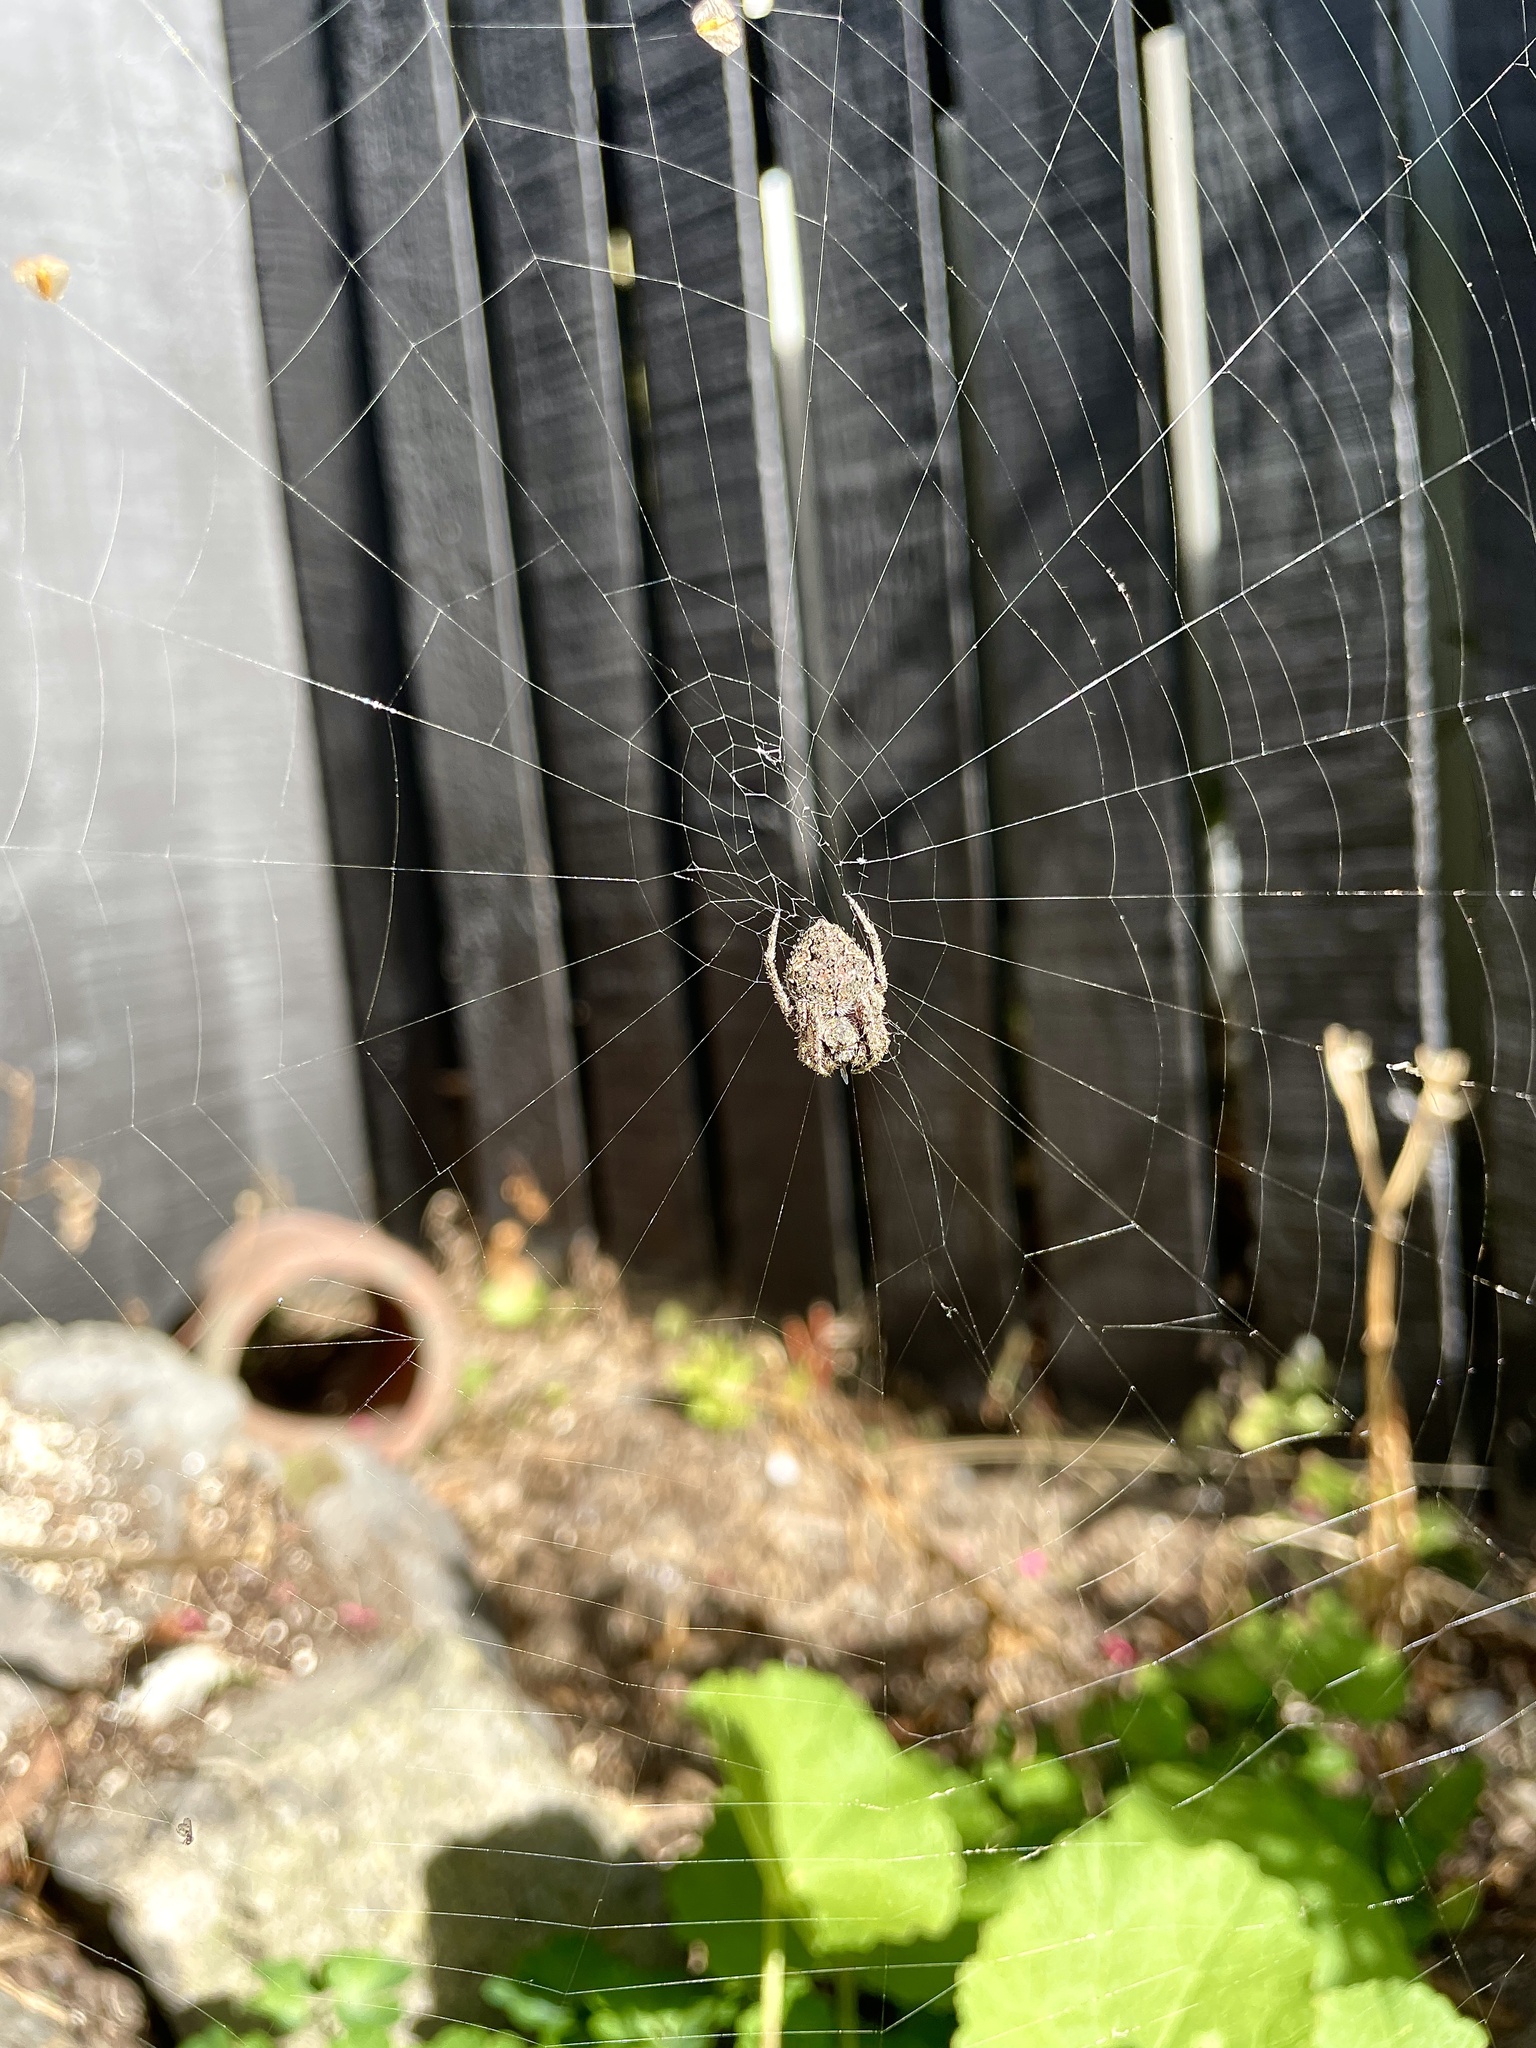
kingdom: Animalia
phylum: Arthropoda
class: Arachnida
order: Araneae
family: Araneidae
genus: Eriophora
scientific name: Eriophora pustulosa
